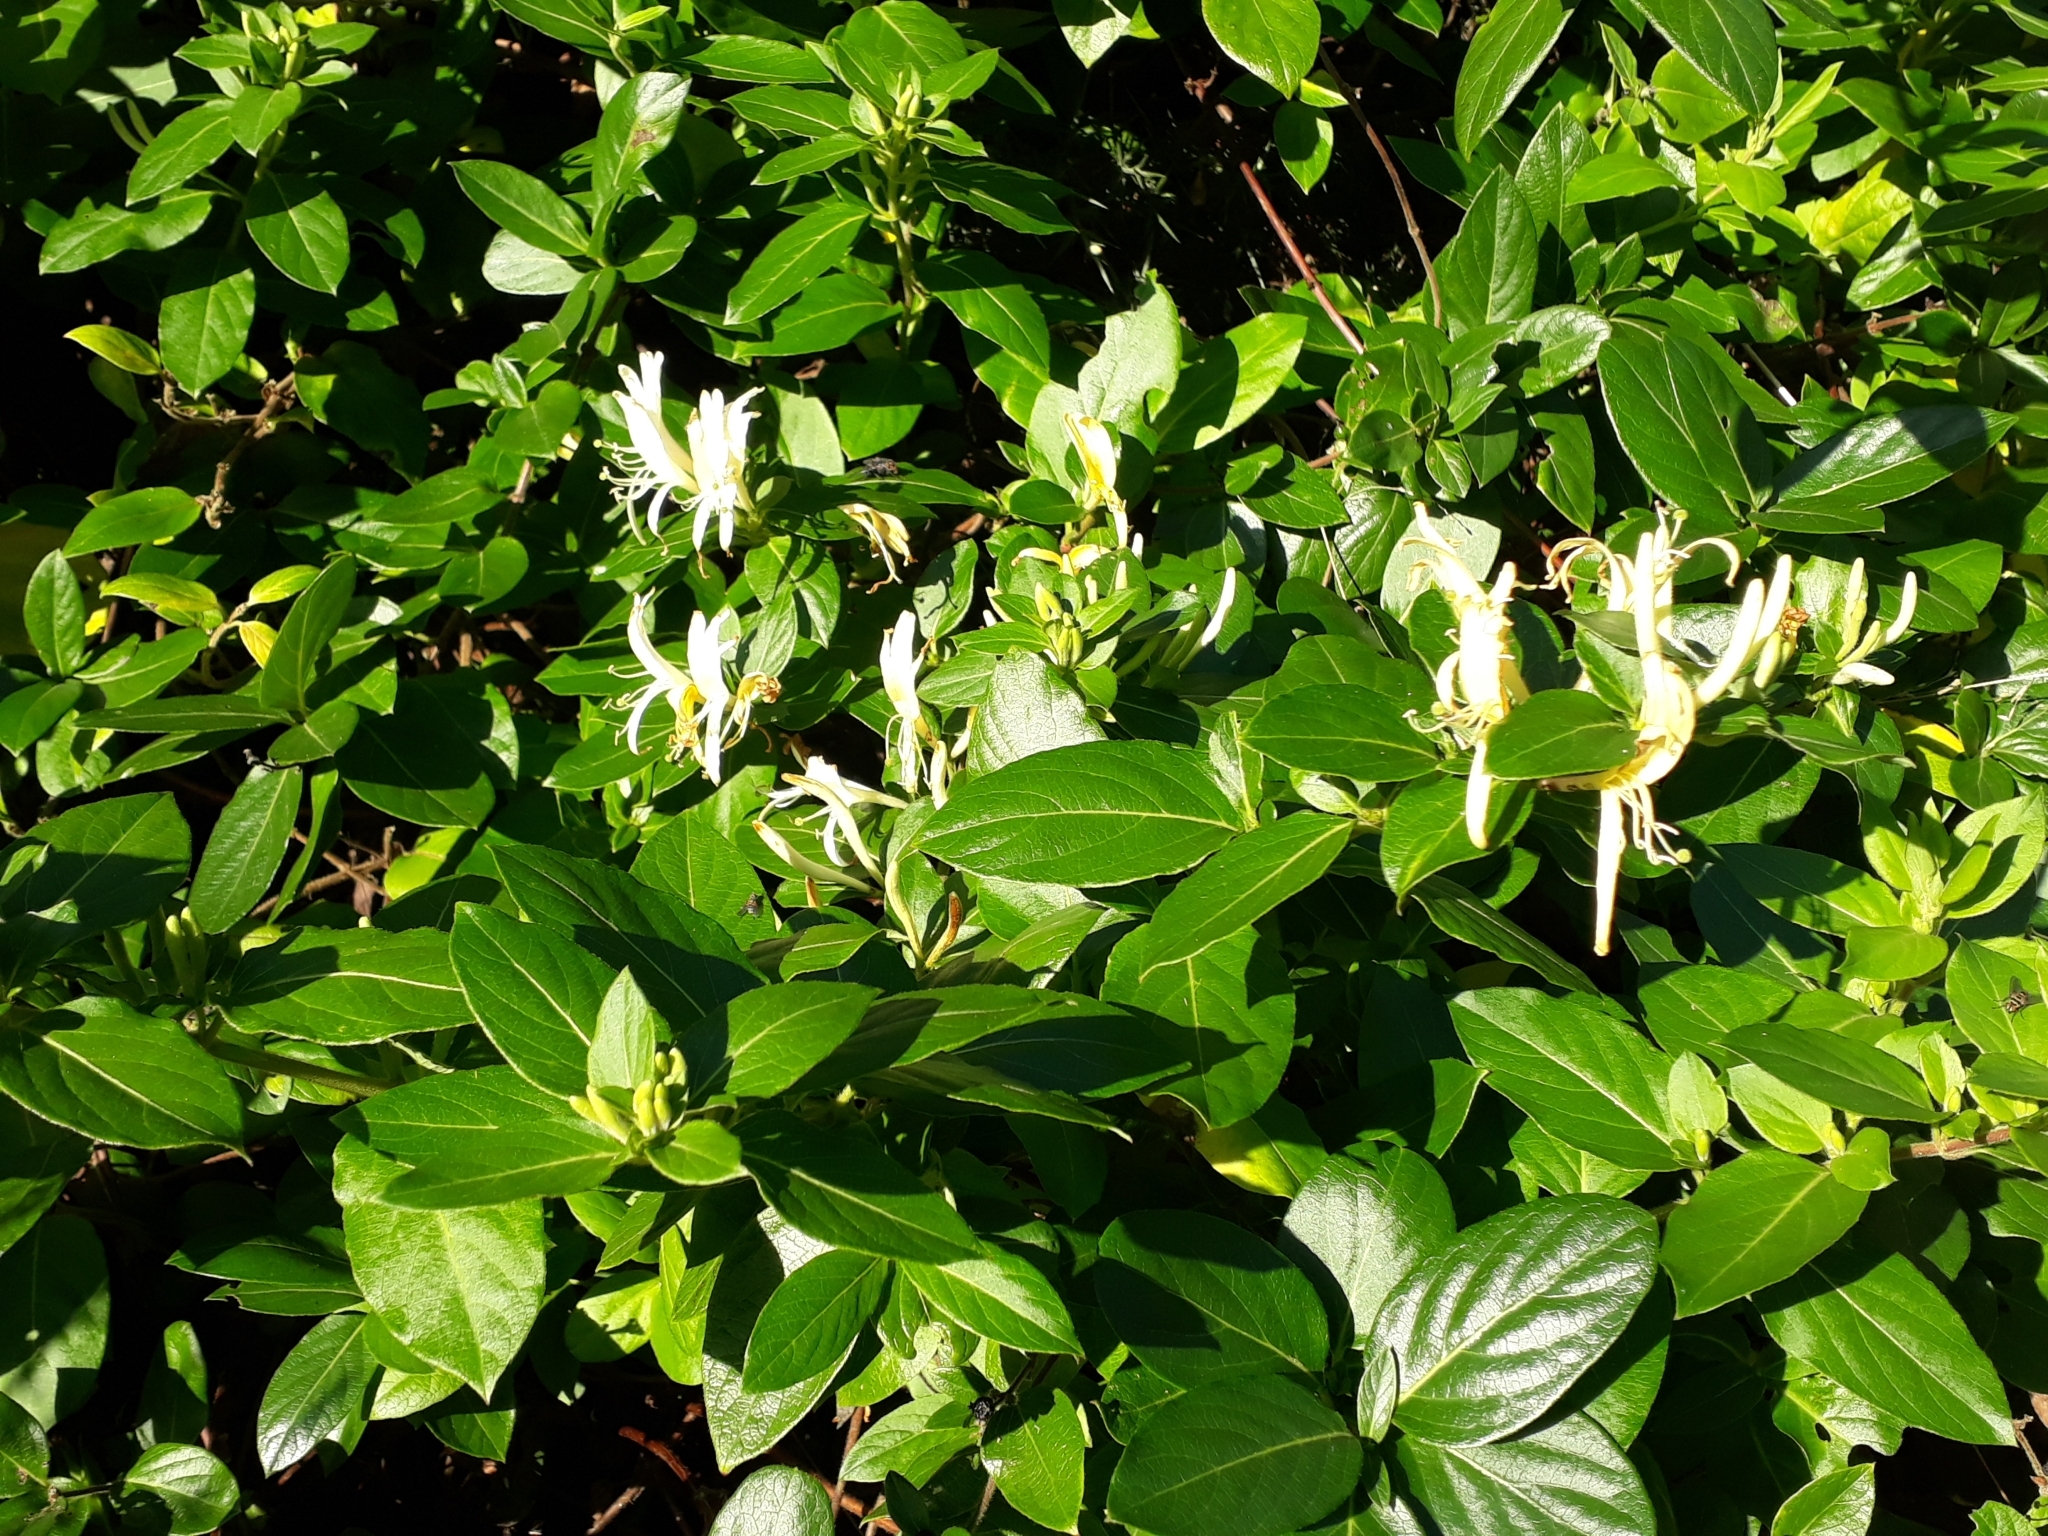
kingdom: Plantae
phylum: Tracheophyta
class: Magnoliopsida
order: Dipsacales
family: Caprifoliaceae
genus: Lonicera
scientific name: Lonicera japonica
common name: Japanese honeysuckle
